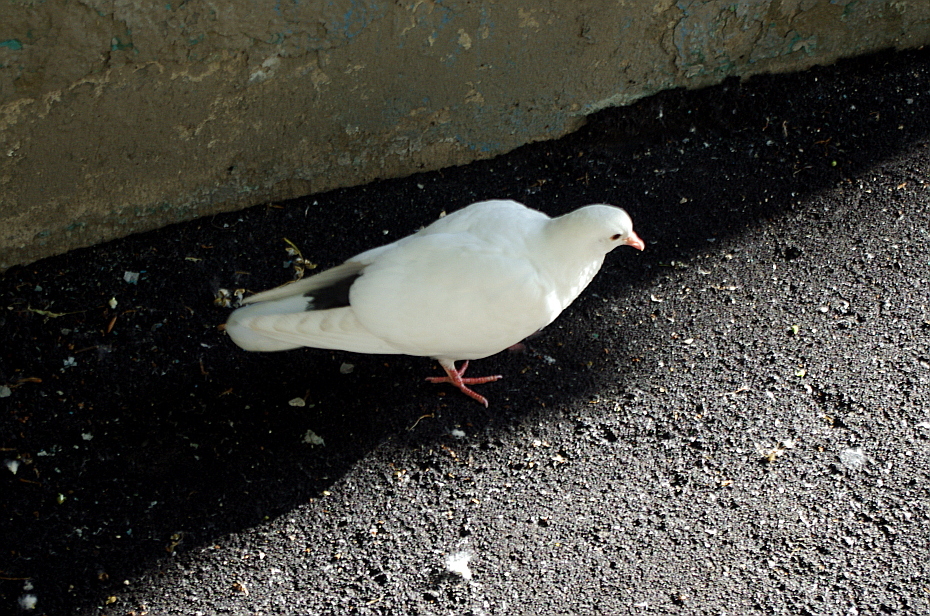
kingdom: Animalia
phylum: Chordata
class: Aves
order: Columbiformes
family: Columbidae
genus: Columba
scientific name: Columba livia
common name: Rock pigeon
